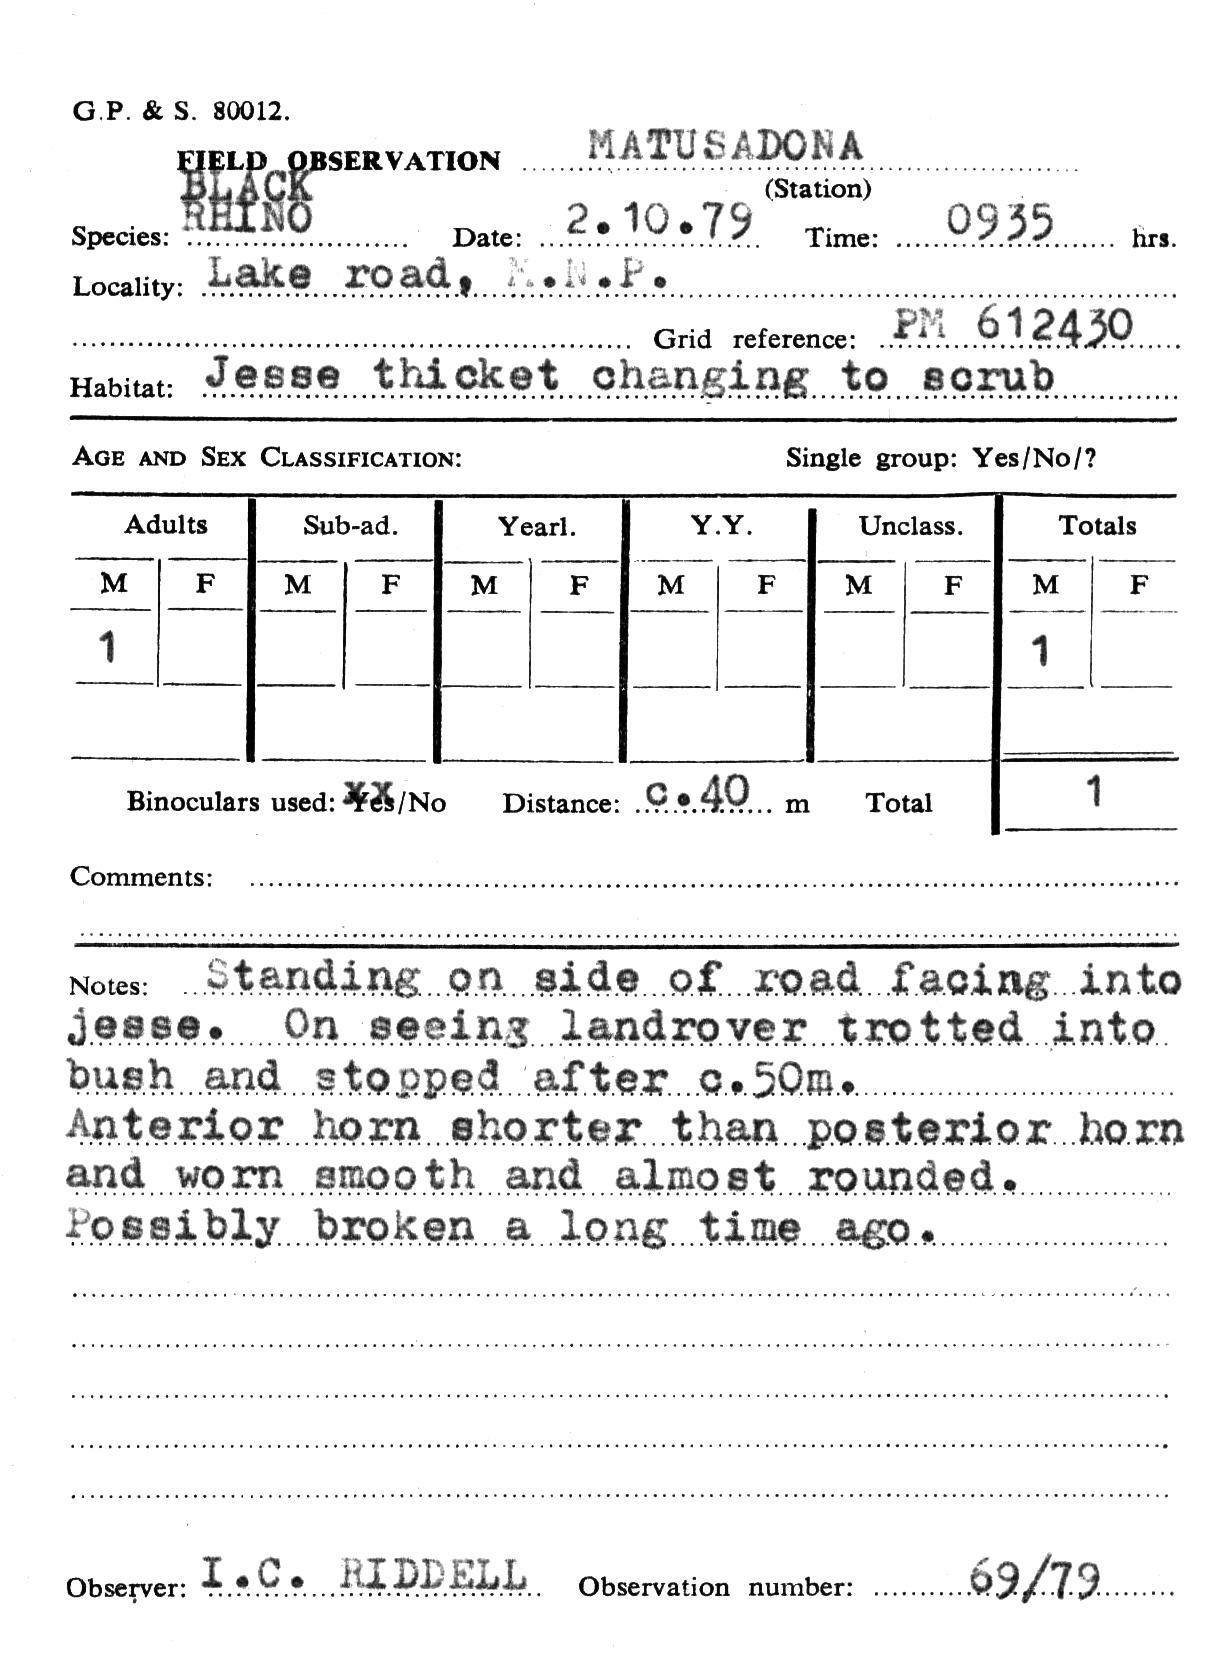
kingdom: Animalia
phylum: Chordata
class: Mammalia
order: Perissodactyla
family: Rhinocerotidae
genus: Diceros
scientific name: Diceros bicornis
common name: Black rhinoceros
